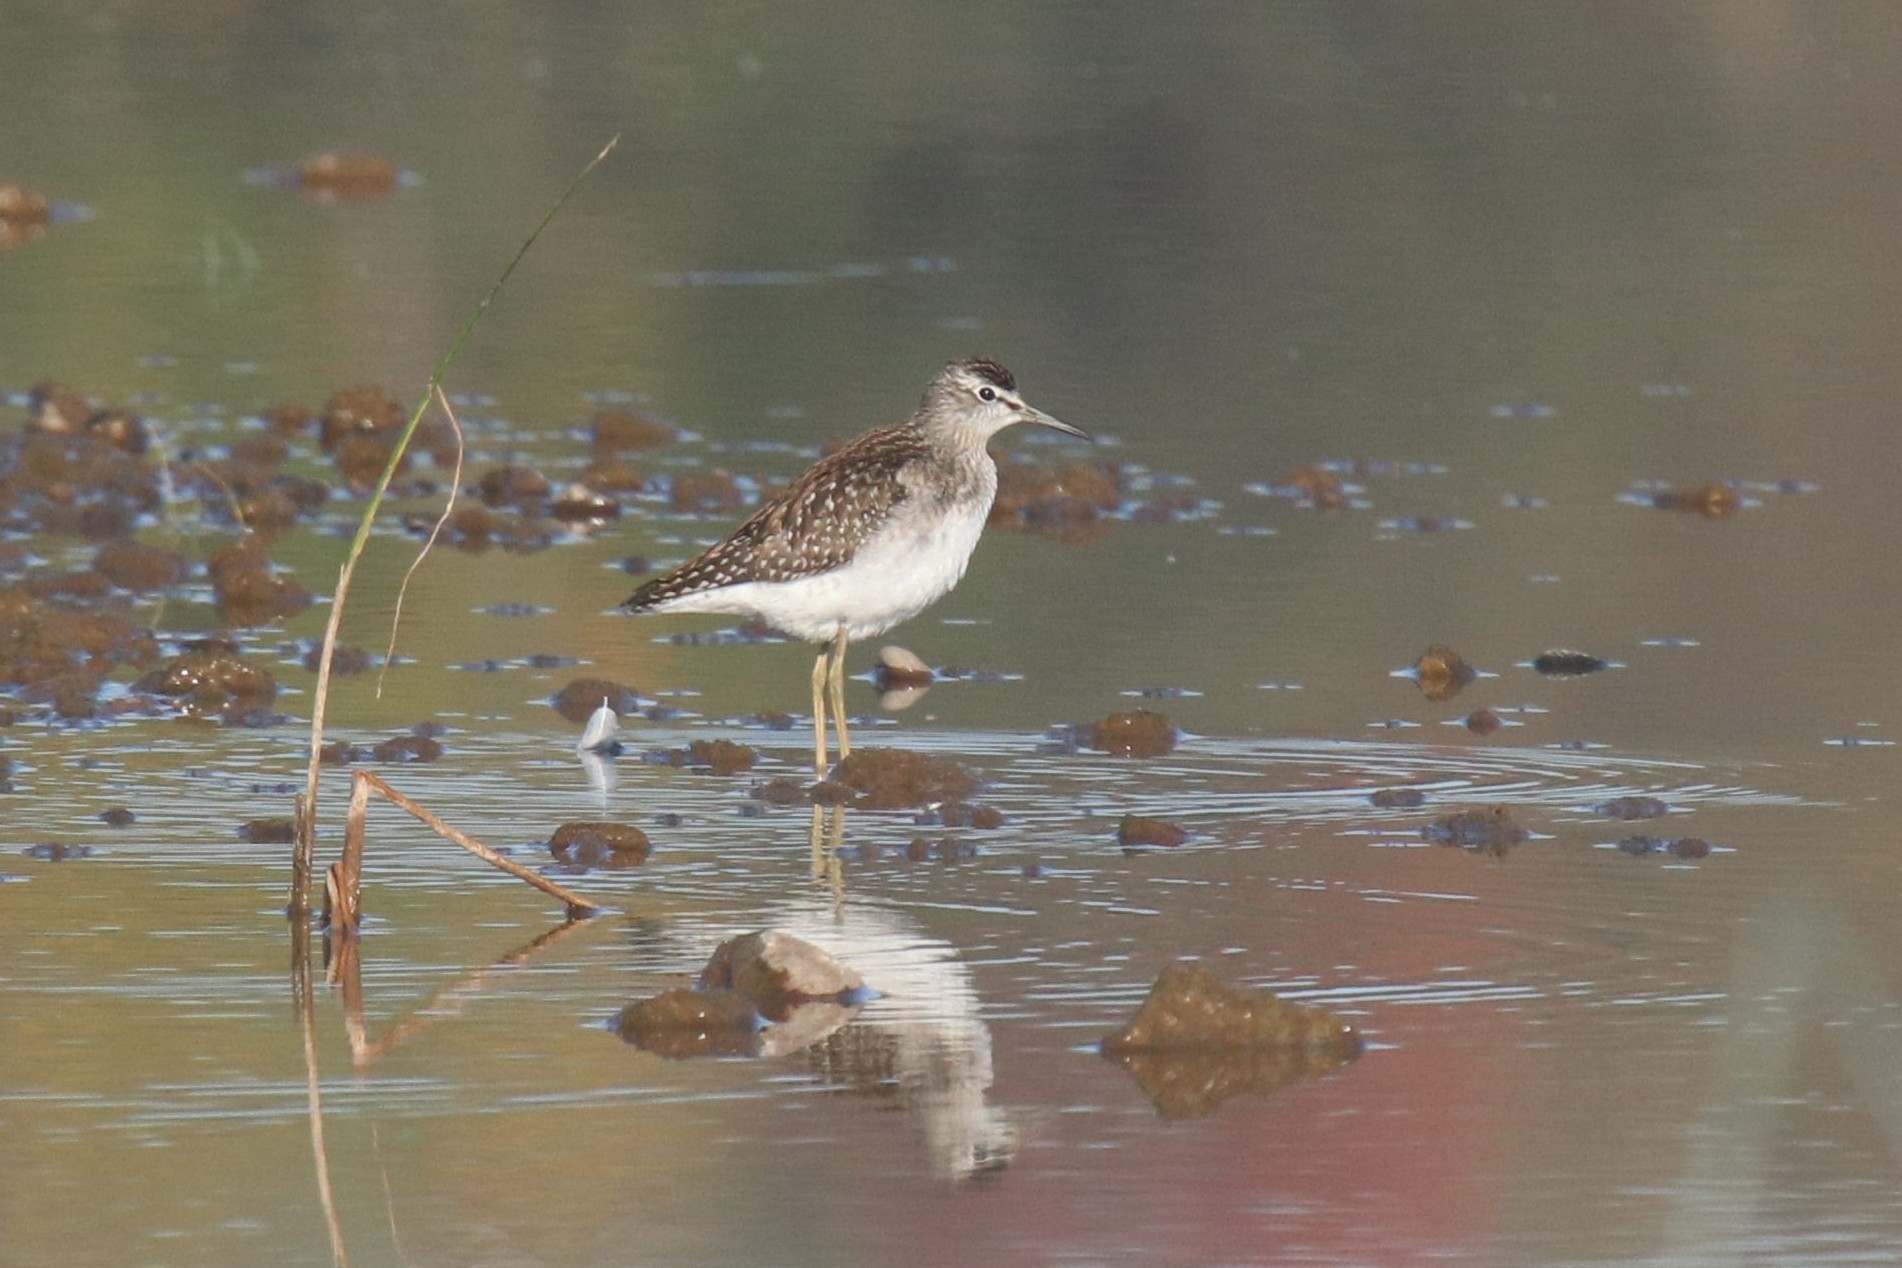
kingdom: Animalia
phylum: Chordata
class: Aves
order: Charadriiformes
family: Scolopacidae
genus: Tringa
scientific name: Tringa glareola
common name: Wood sandpiper
